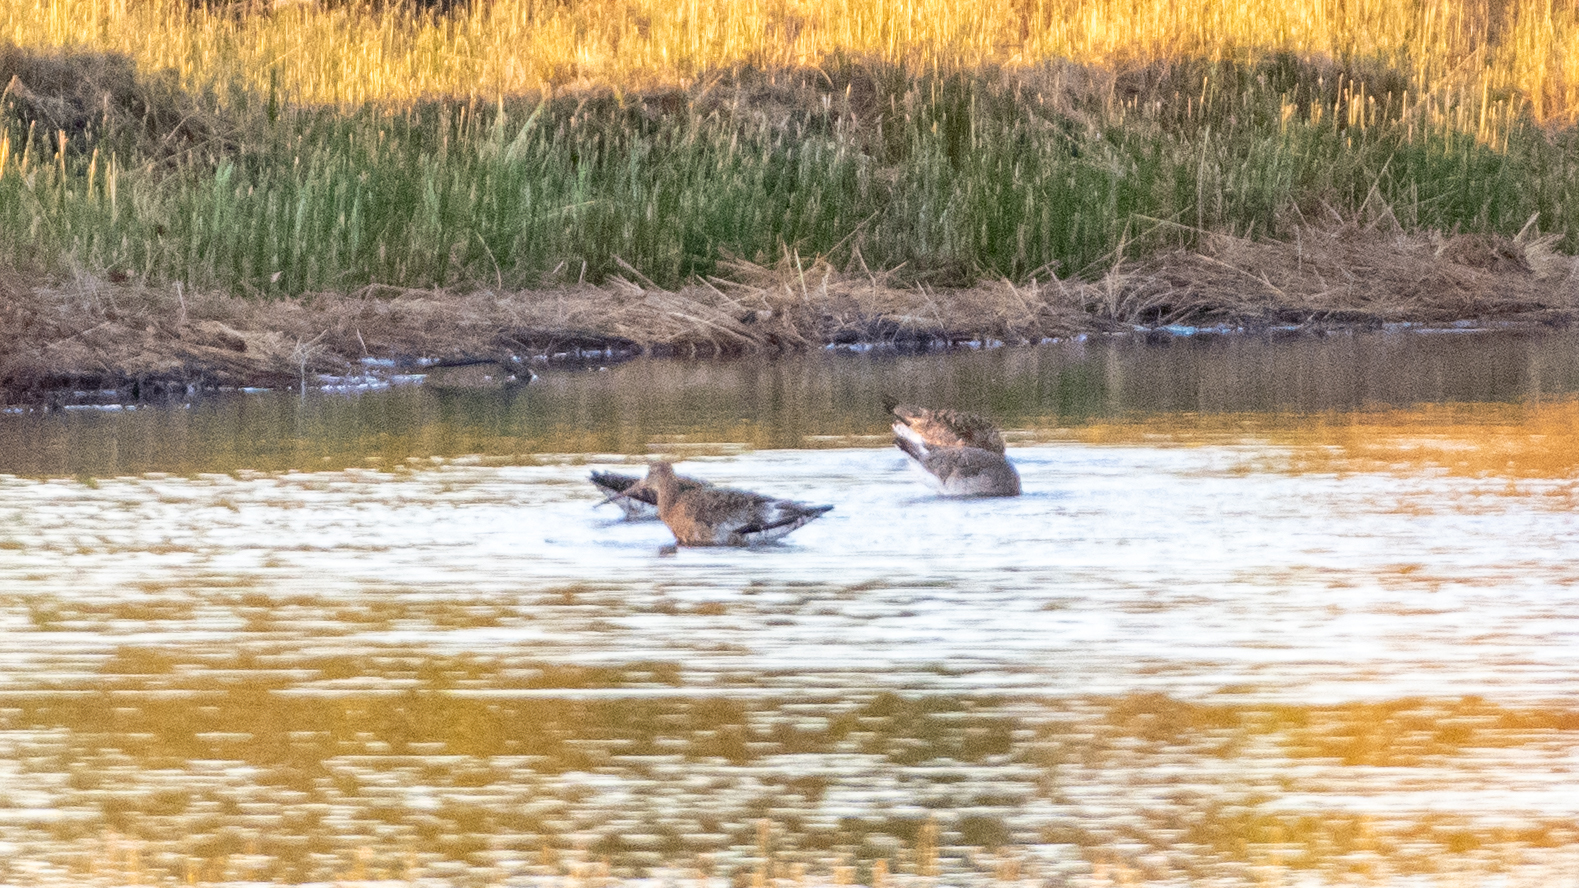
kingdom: Animalia
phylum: Chordata
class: Aves
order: Charadriiformes
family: Scolopacidae
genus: Limosa
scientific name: Limosa limosa
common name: Black-tailed godwit
